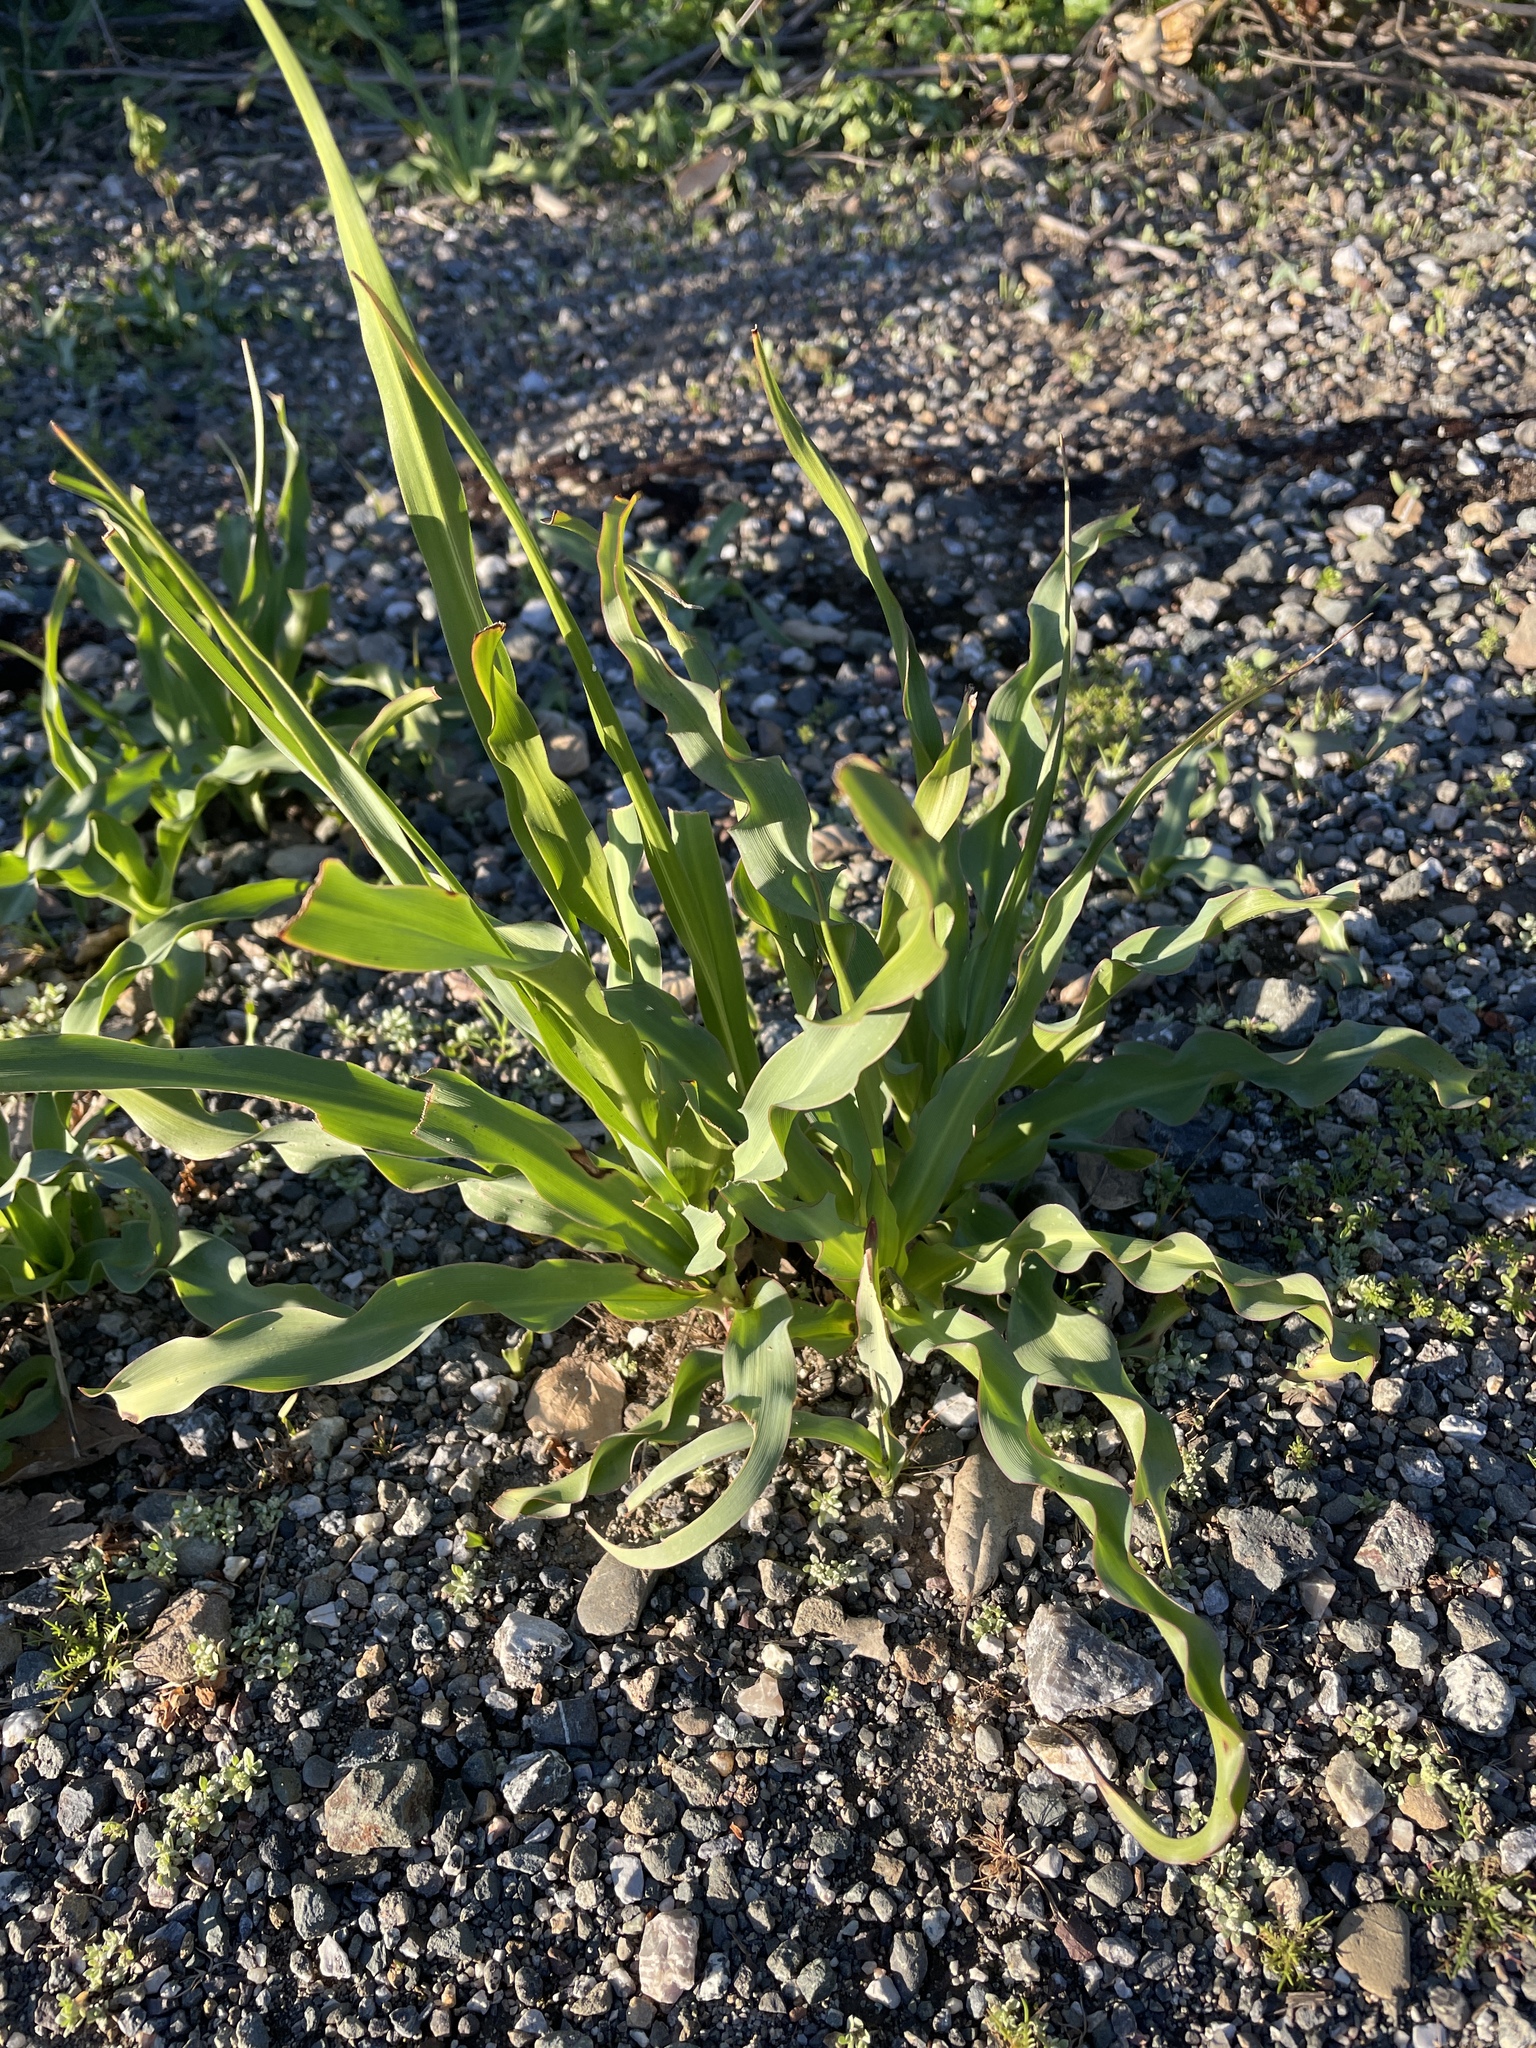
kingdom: Plantae
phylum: Tracheophyta
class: Liliopsida
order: Asparagales
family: Asparagaceae
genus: Chlorogalum
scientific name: Chlorogalum pomeridianum
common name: Amole
